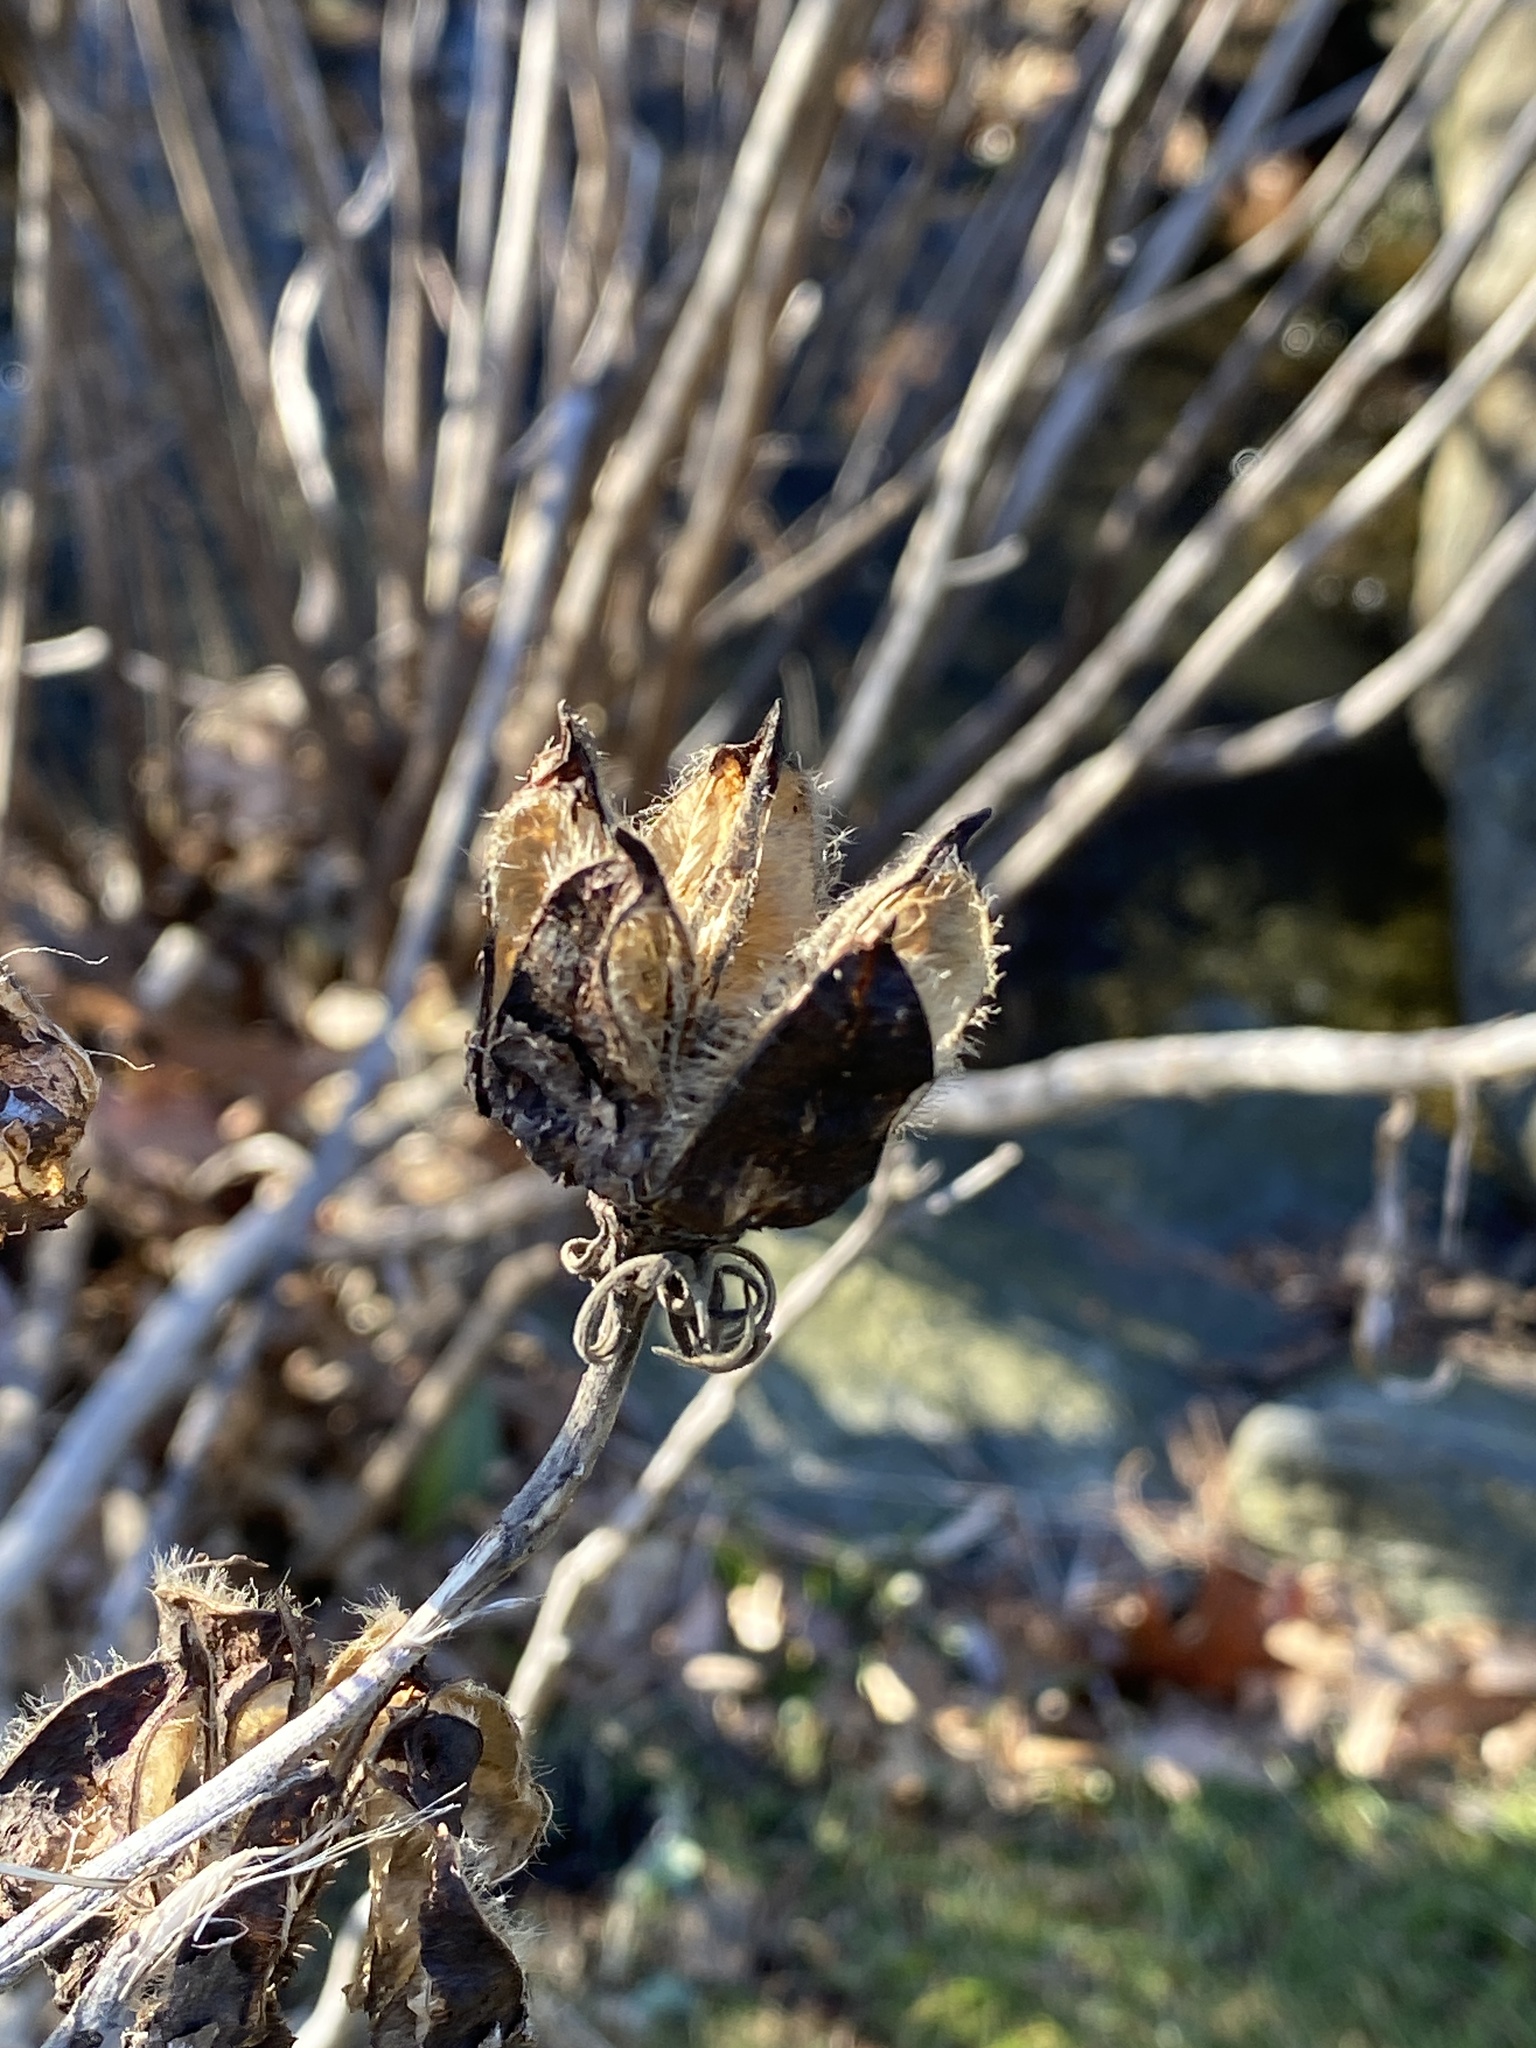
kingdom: Plantae
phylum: Tracheophyta
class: Magnoliopsida
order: Malvales
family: Malvaceae
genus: Hibiscus
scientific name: Hibiscus moscheutos
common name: Common rose-mallow
